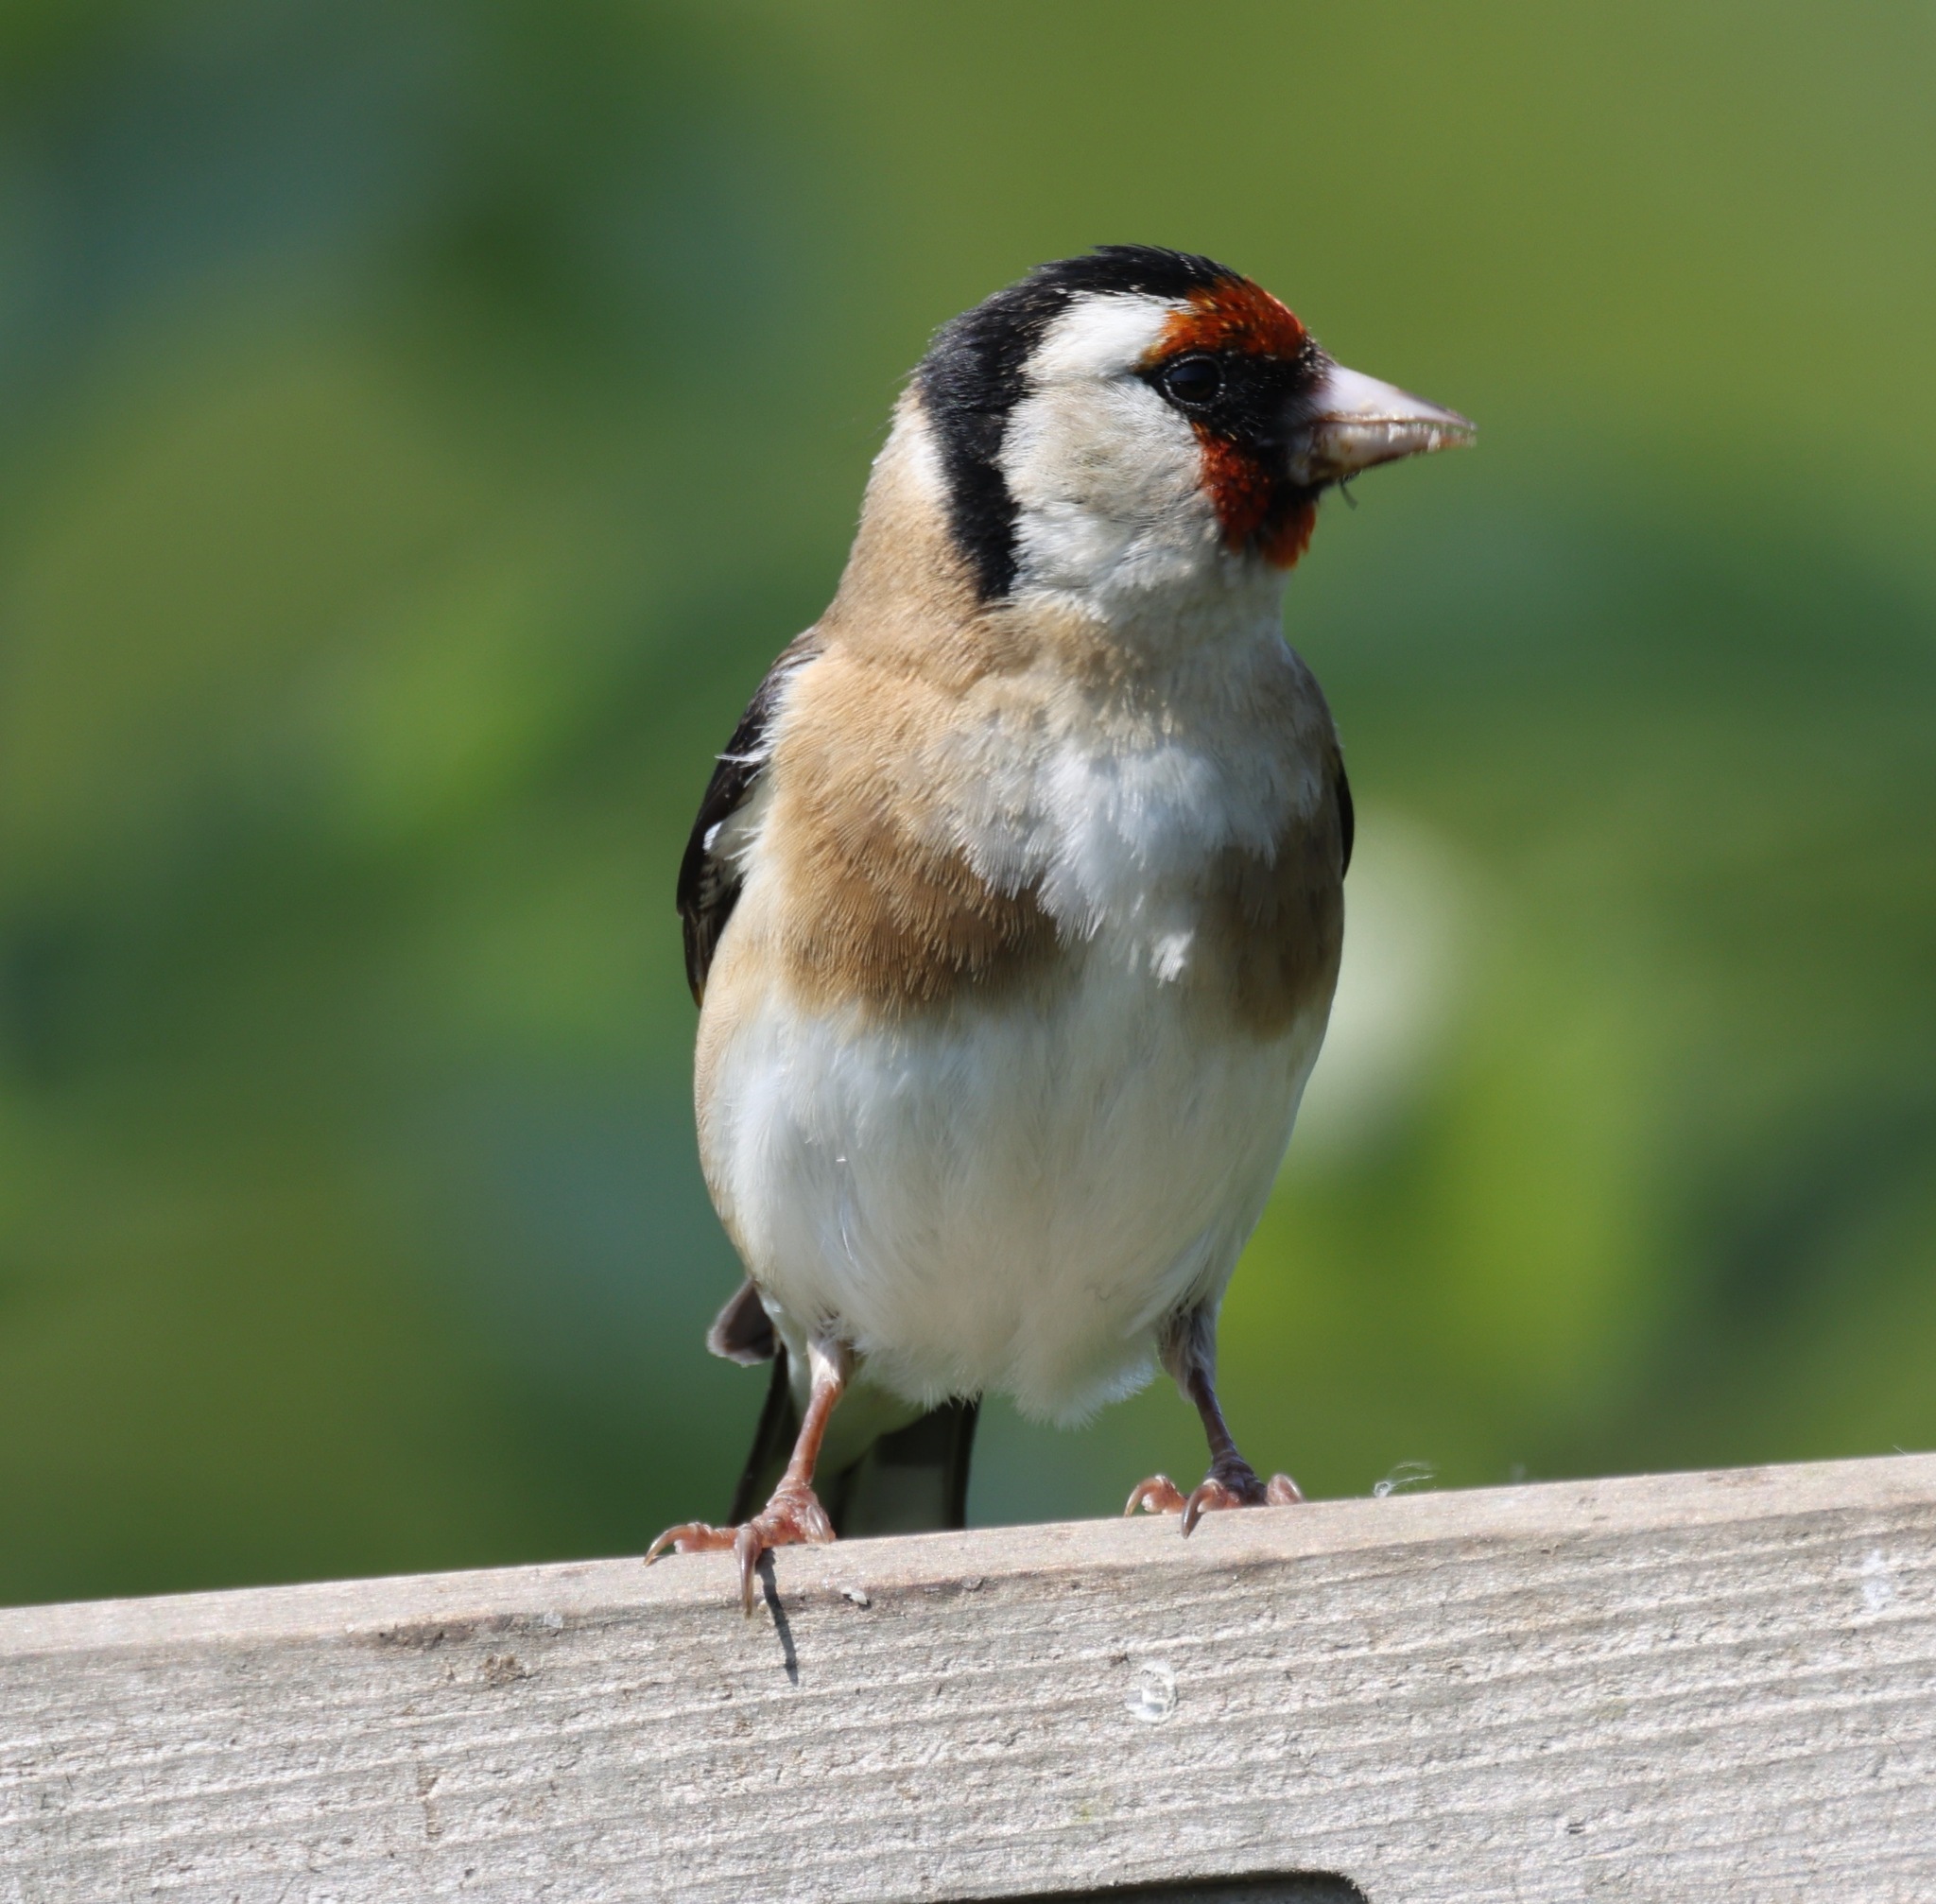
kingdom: Animalia
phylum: Chordata
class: Aves
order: Passeriformes
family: Fringillidae
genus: Carduelis
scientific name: Carduelis carduelis
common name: European goldfinch
